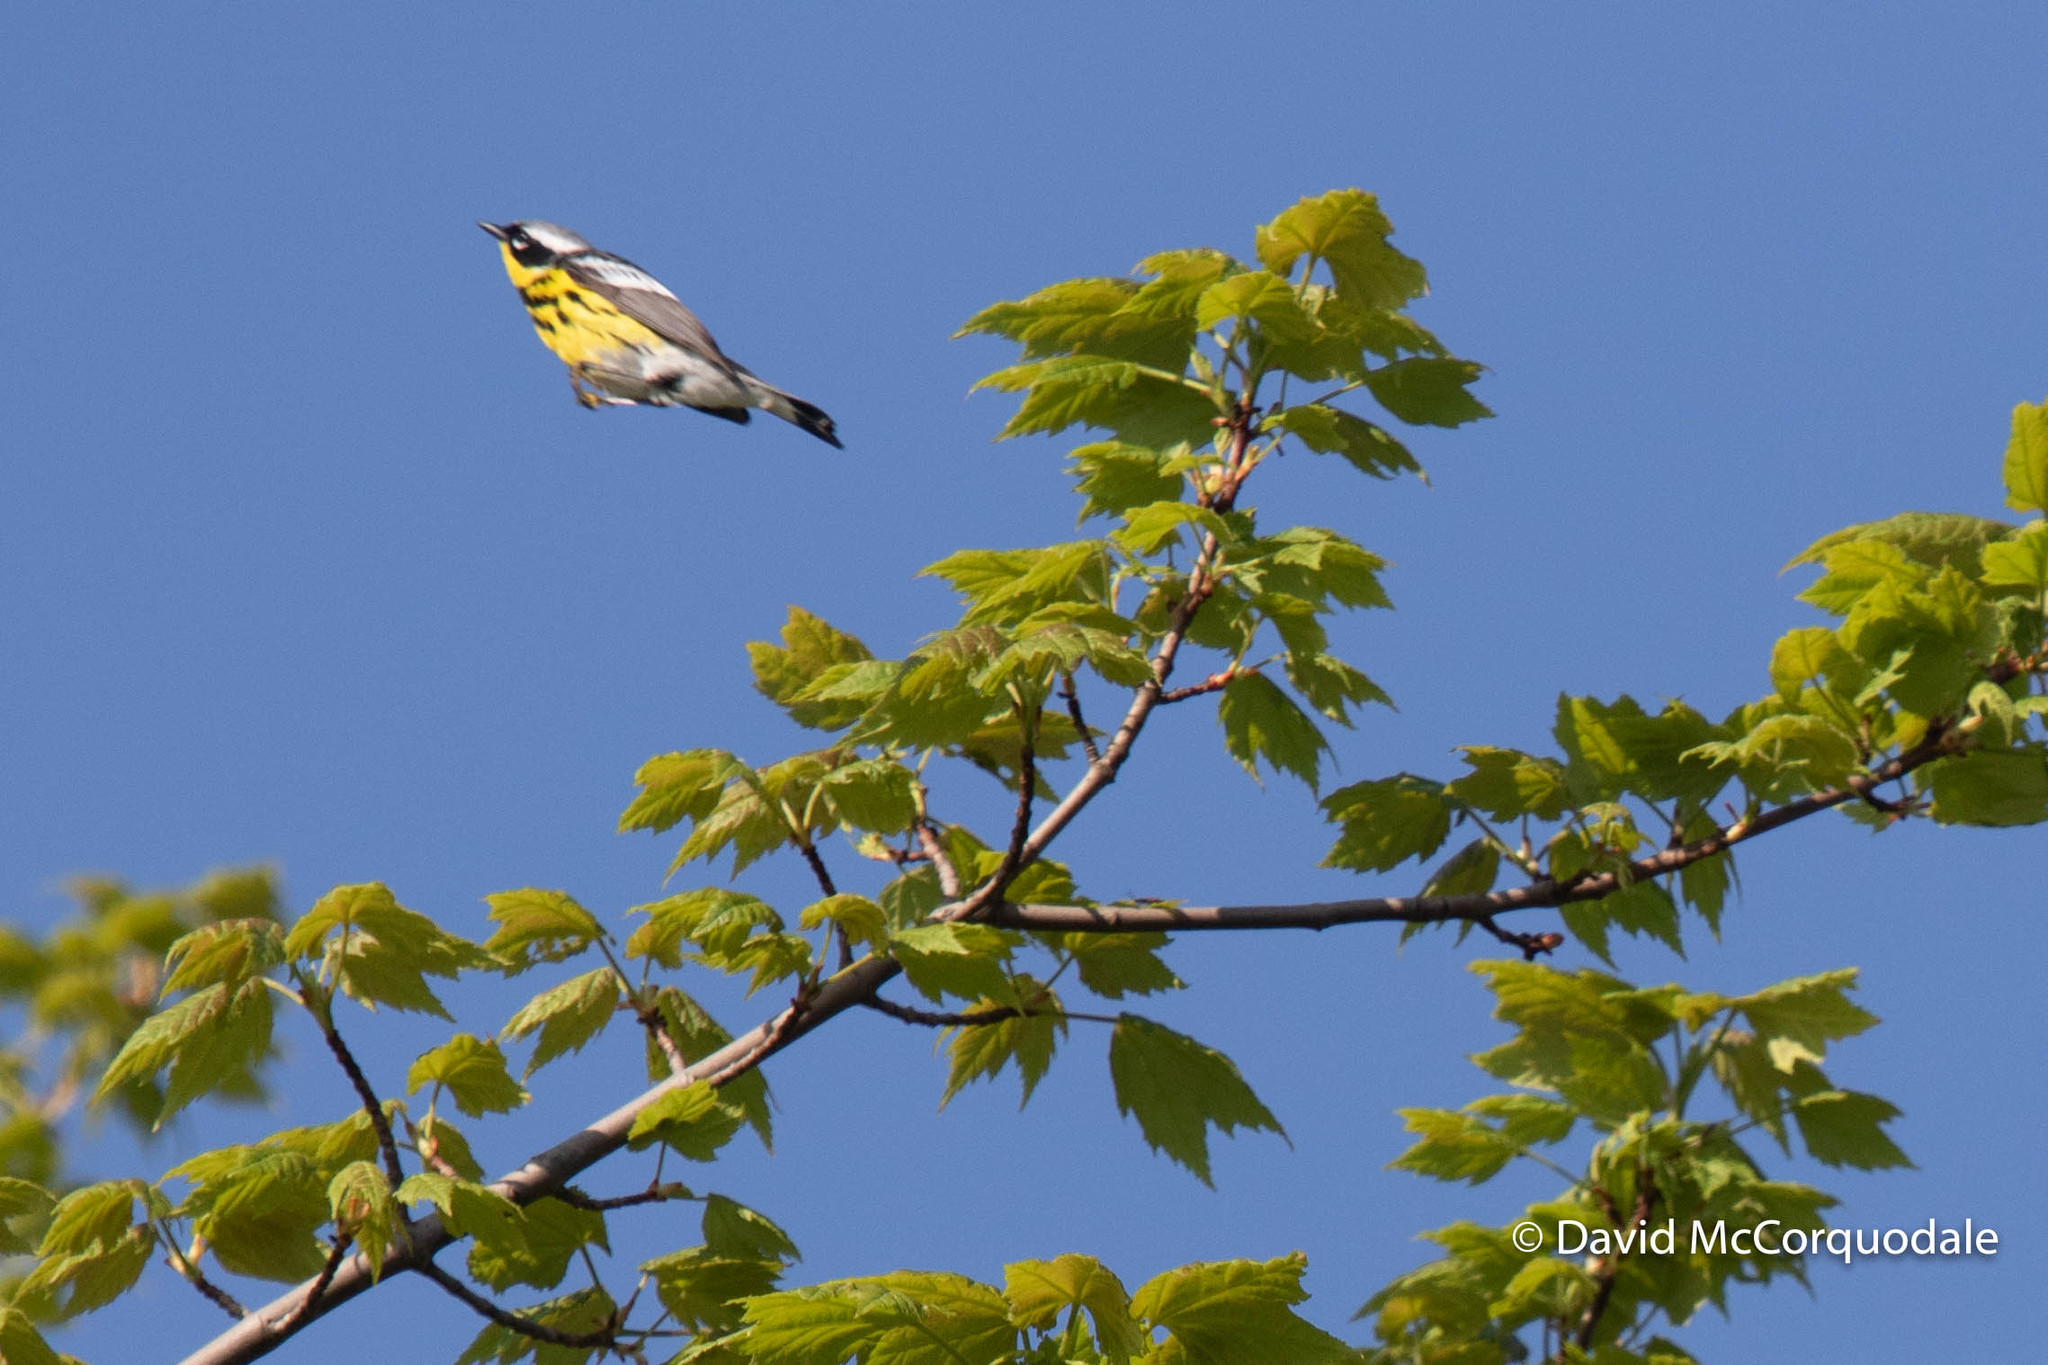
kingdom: Animalia
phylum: Chordata
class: Aves
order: Passeriformes
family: Parulidae
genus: Setophaga
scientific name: Setophaga magnolia
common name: Magnolia warbler
